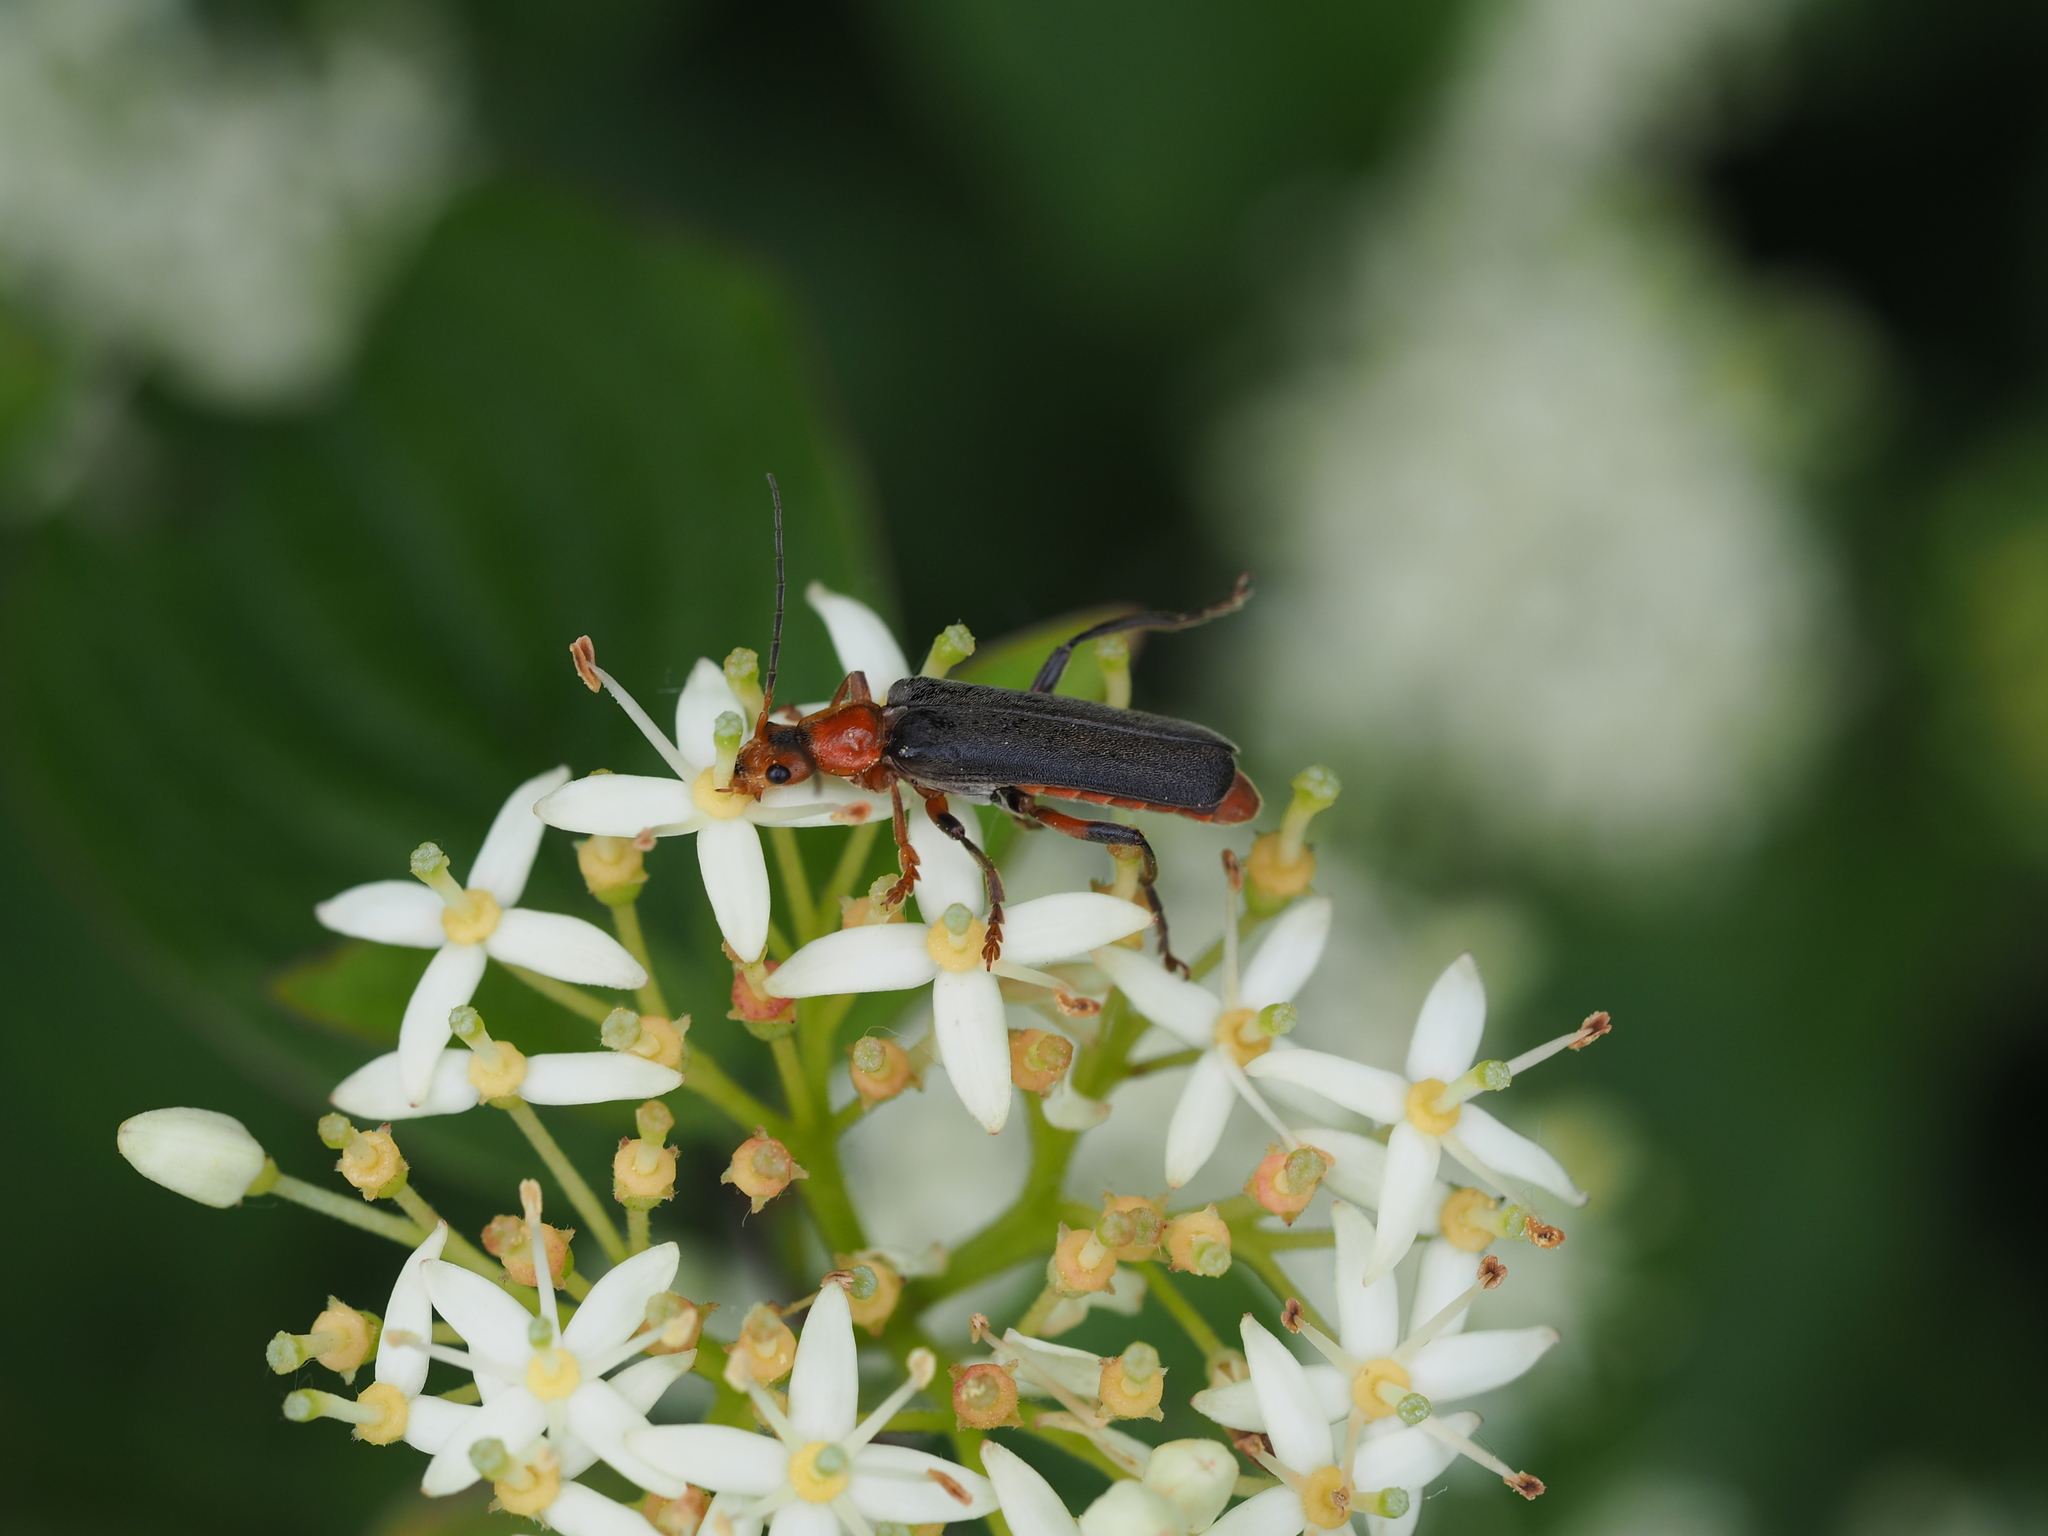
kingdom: Animalia
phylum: Arthropoda
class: Insecta
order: Coleoptera
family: Cantharidae
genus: Cantharis
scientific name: Cantharis livida
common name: Livid soldier beetle
